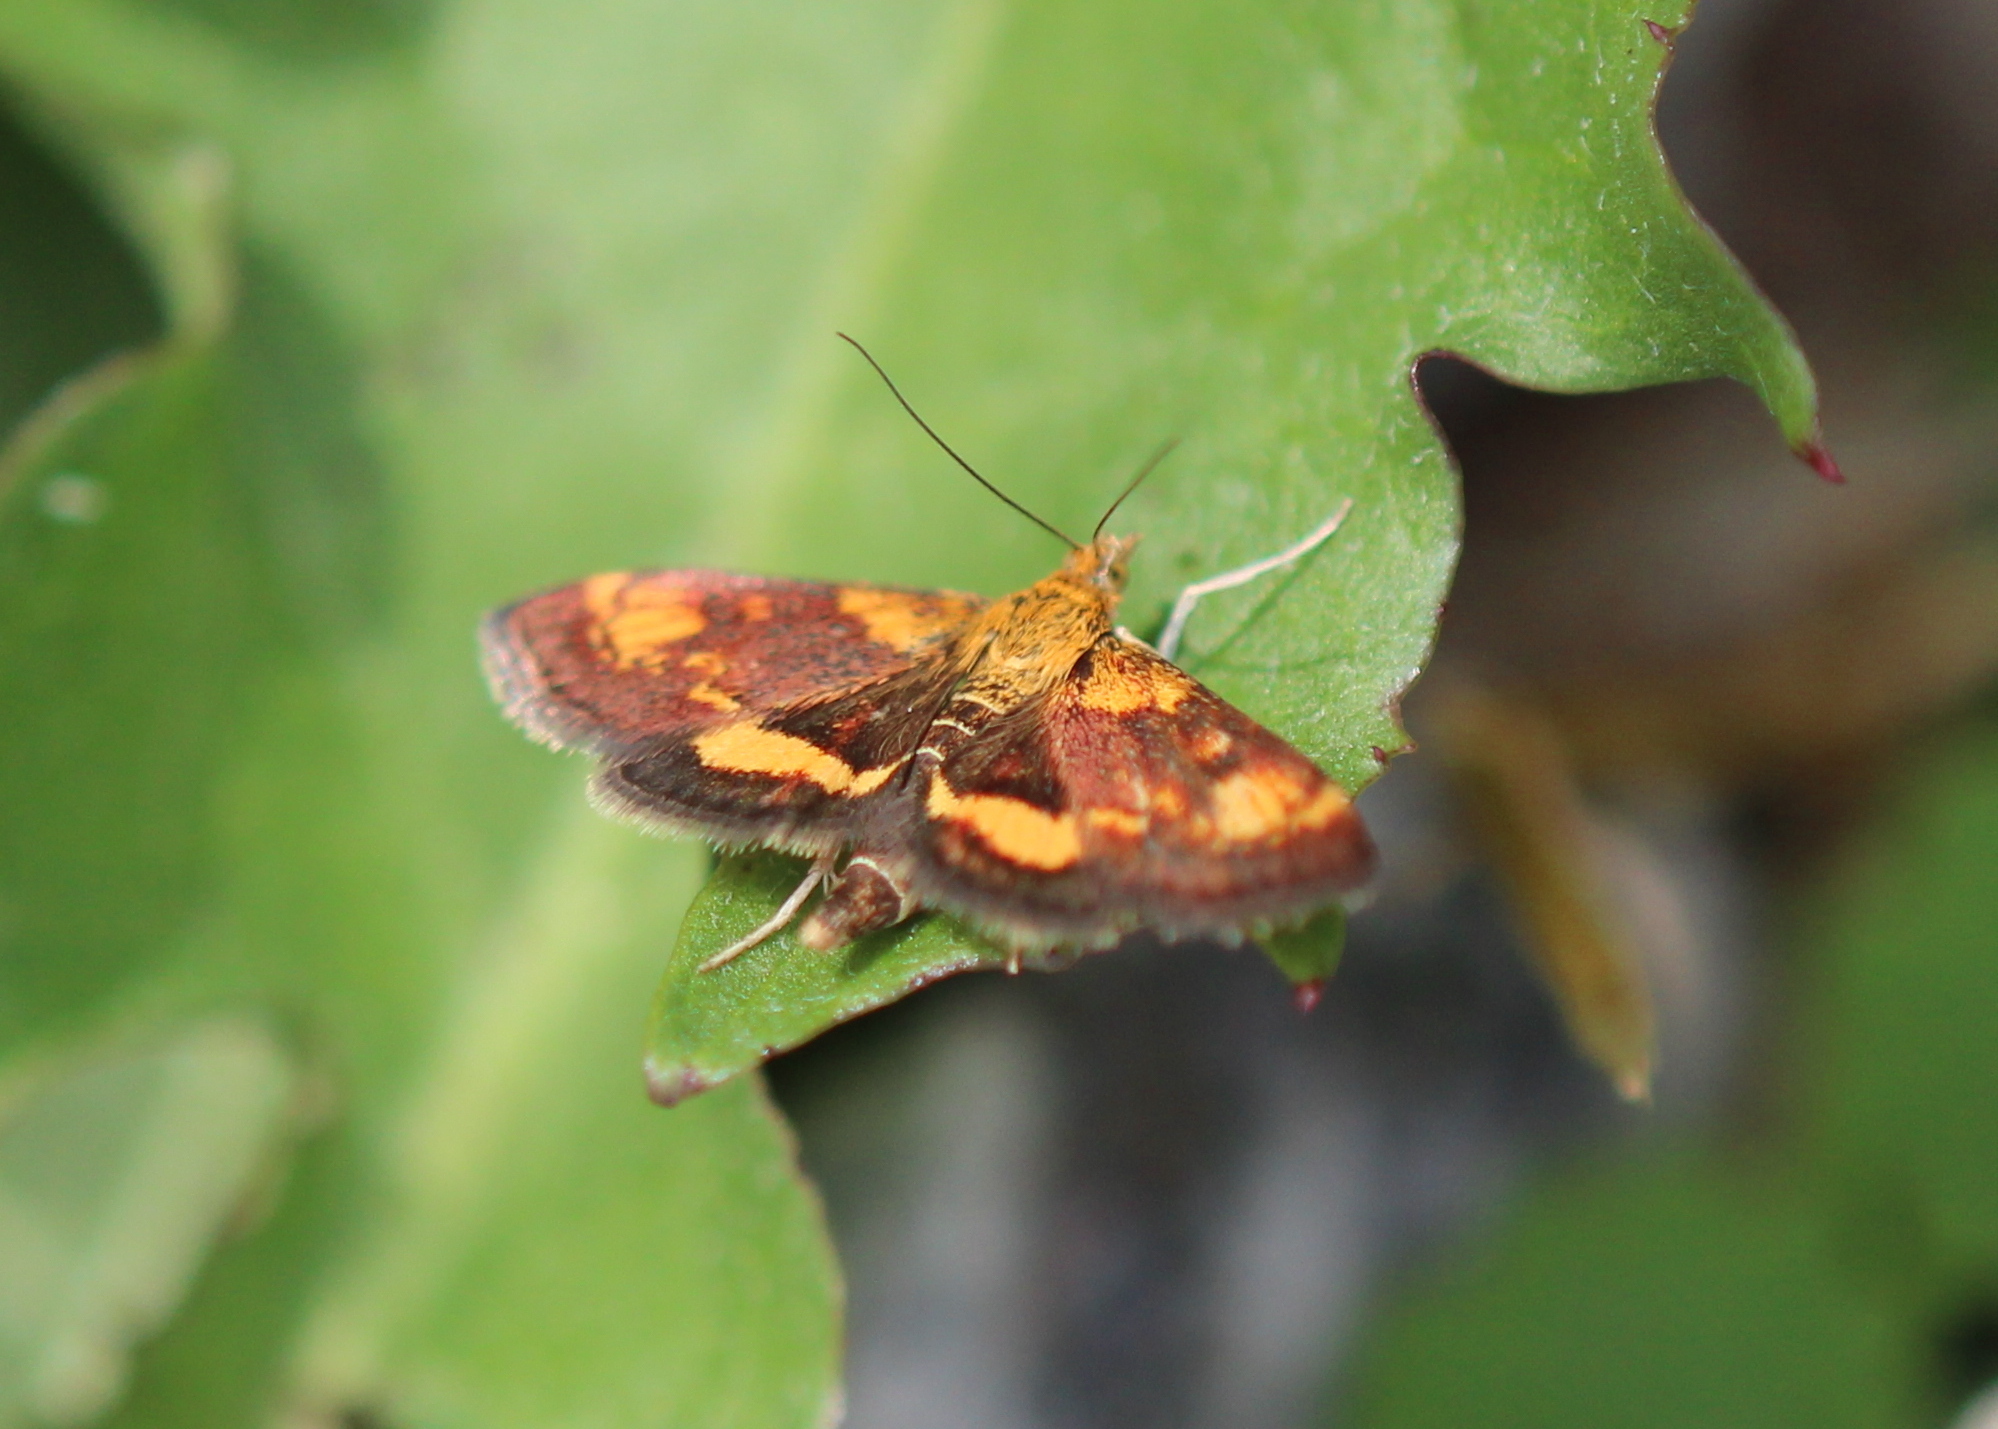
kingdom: Animalia
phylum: Arthropoda
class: Insecta
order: Lepidoptera
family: Crambidae
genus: Pyrausta
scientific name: Pyrausta orphisalis
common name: Orange mint moth
